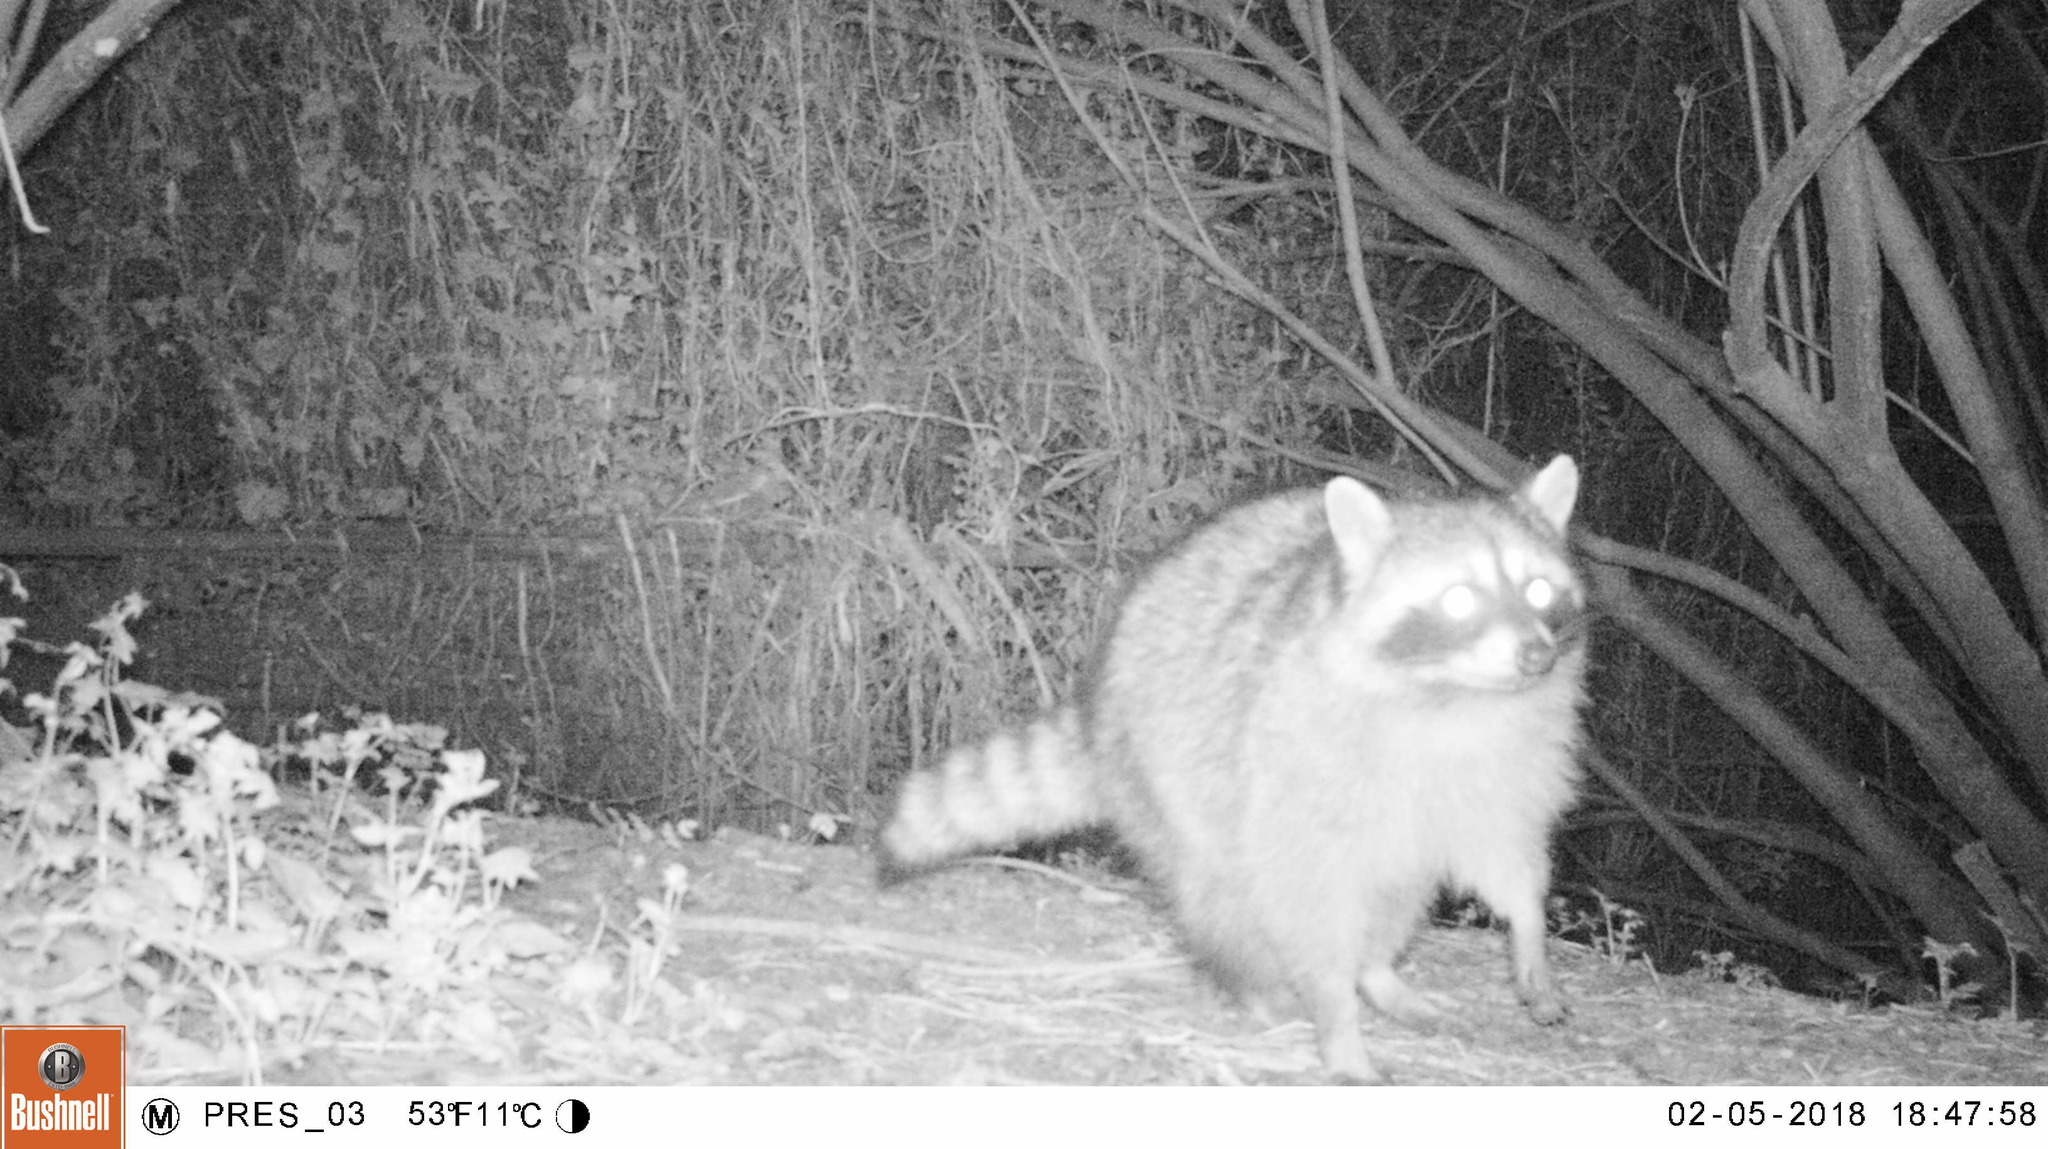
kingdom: Animalia
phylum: Chordata
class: Mammalia
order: Carnivora
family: Procyonidae
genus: Procyon
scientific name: Procyon lotor
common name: Raccoon
